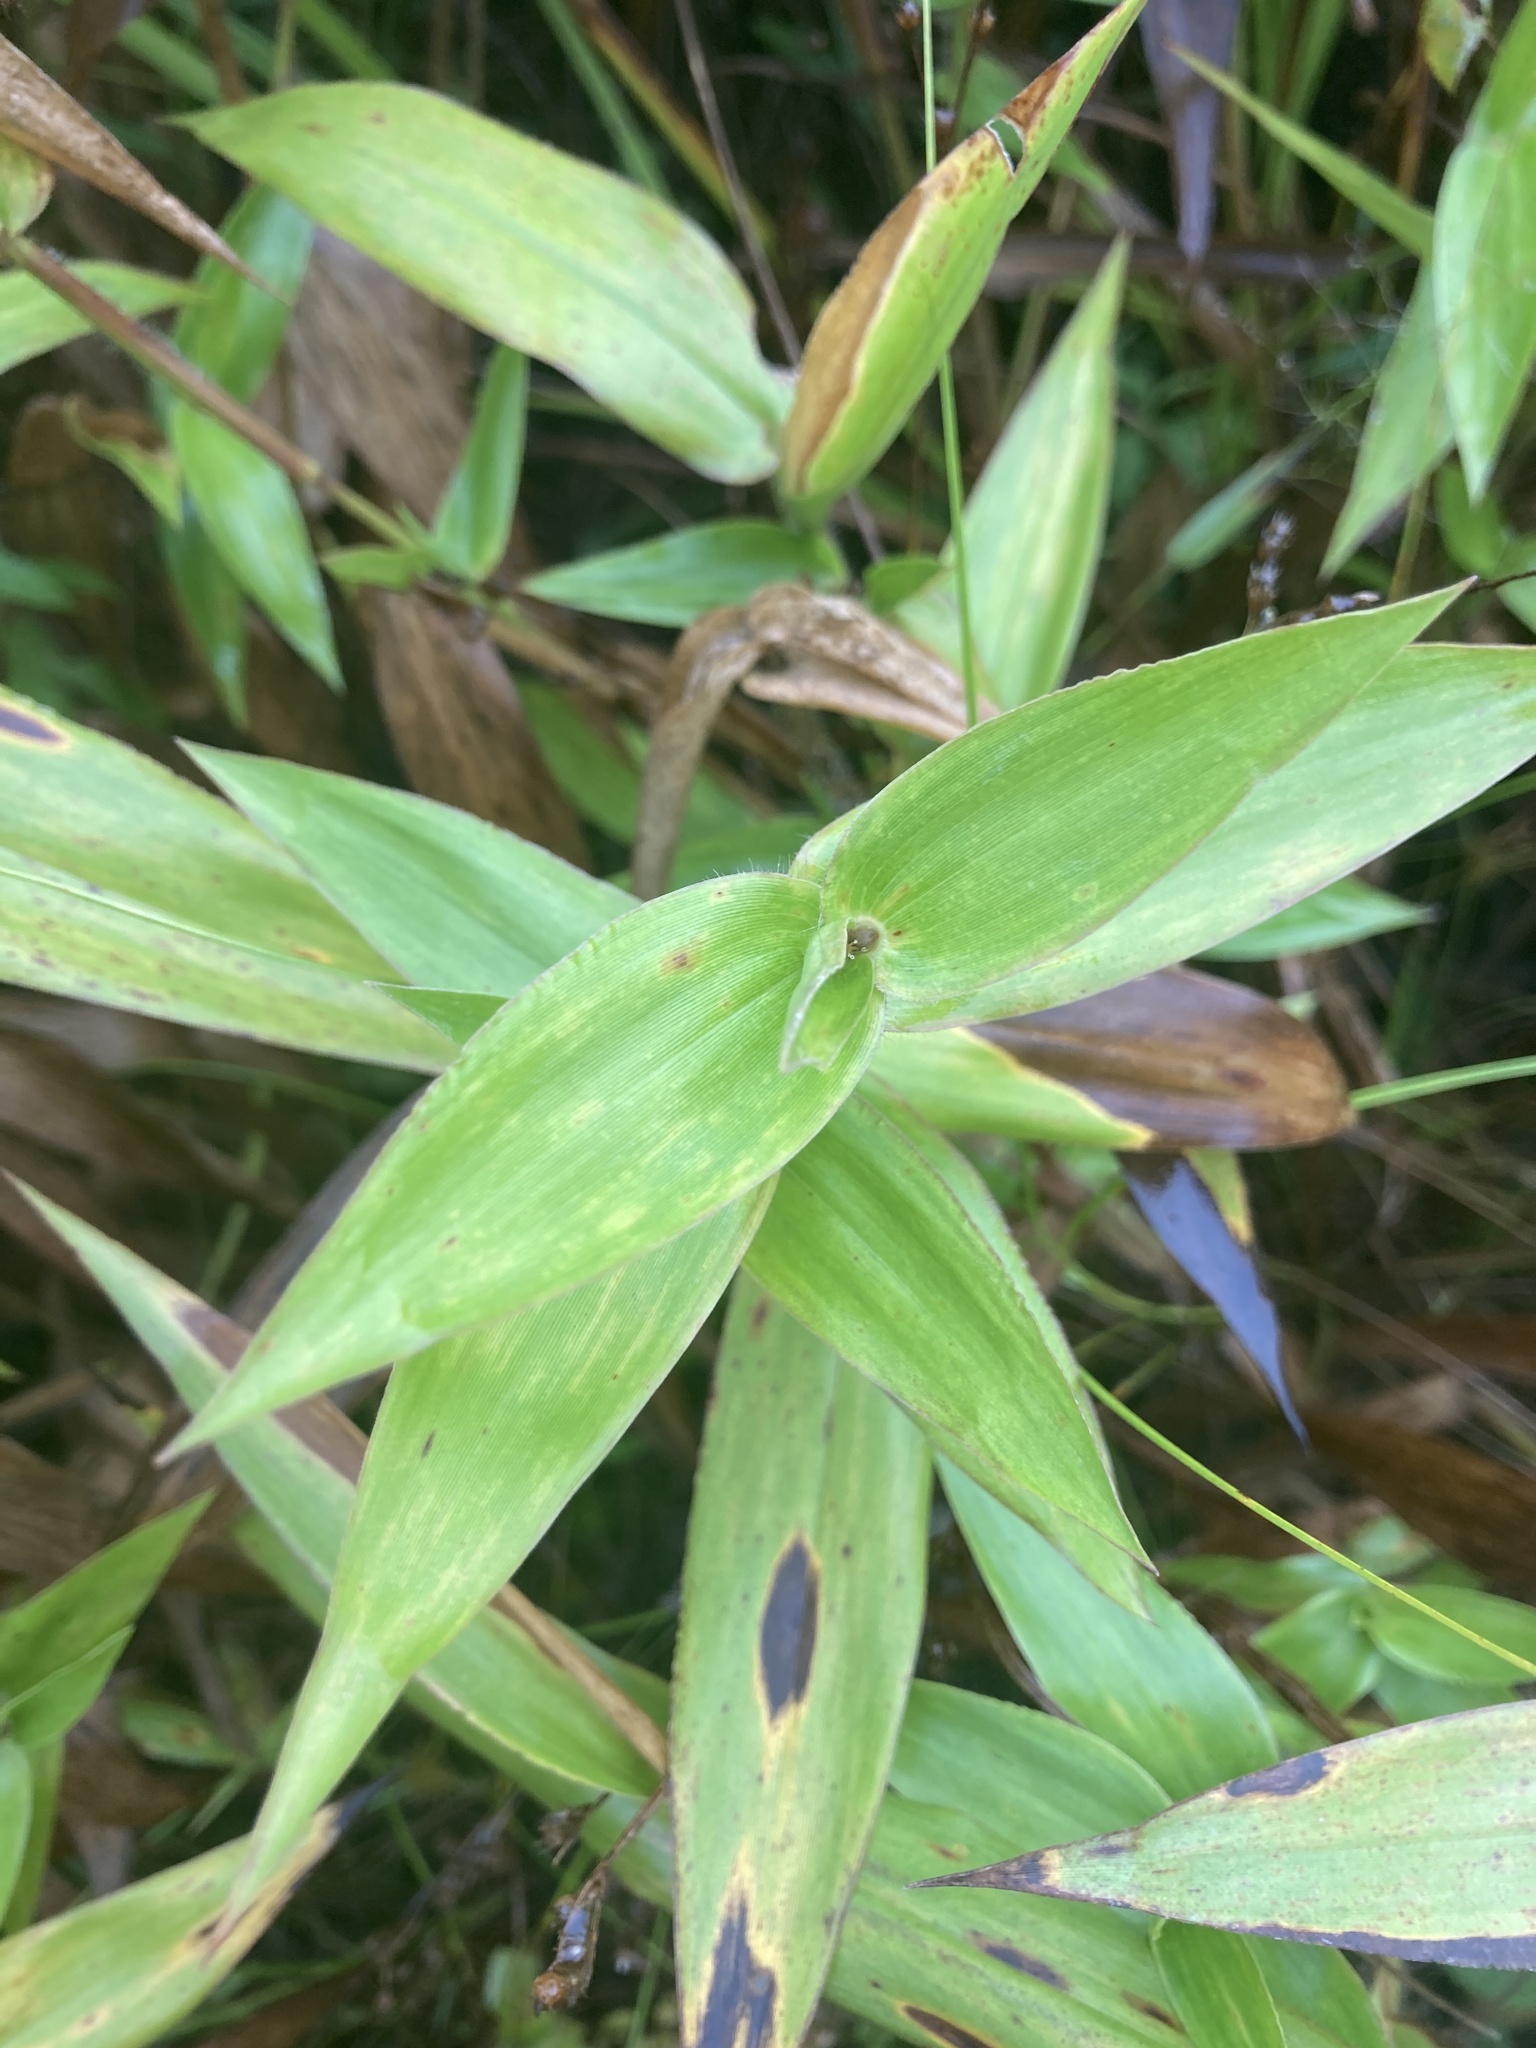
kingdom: Plantae
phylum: Tracheophyta
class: Liliopsida
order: Poales
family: Poaceae
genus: Dichanthelium
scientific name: Dichanthelium clandestinum
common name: Deer-tongue grass
